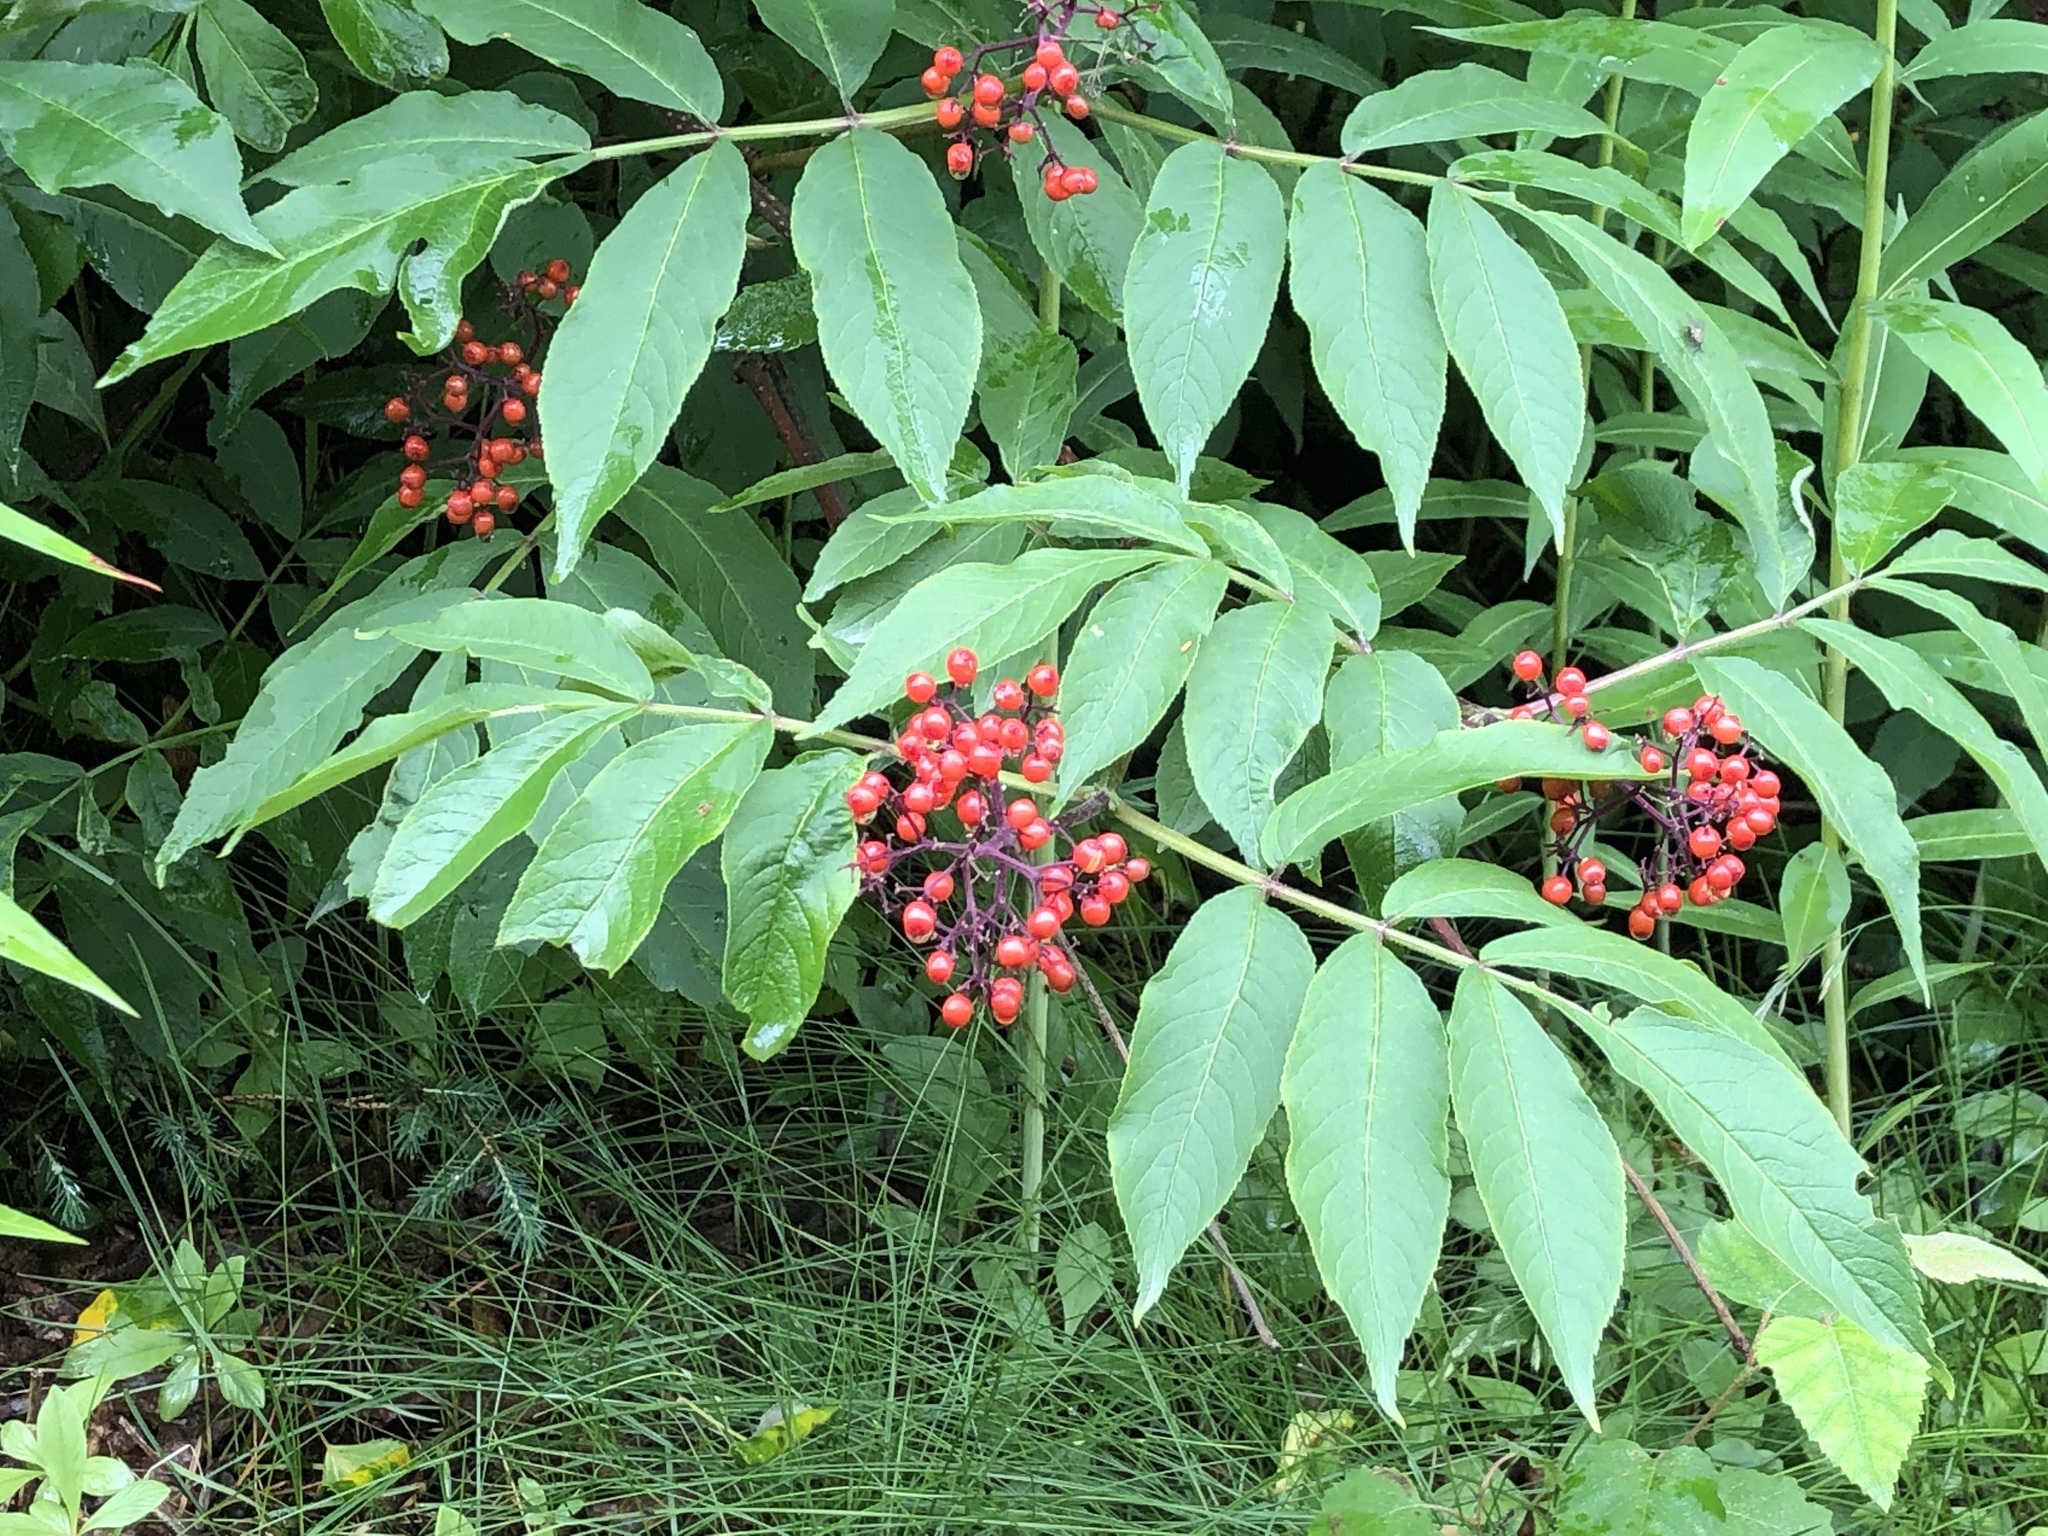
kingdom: Plantae
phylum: Tracheophyta
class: Magnoliopsida
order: Dipsacales
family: Viburnaceae
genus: Sambucus
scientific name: Sambucus racemosa
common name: Red-berried elder
